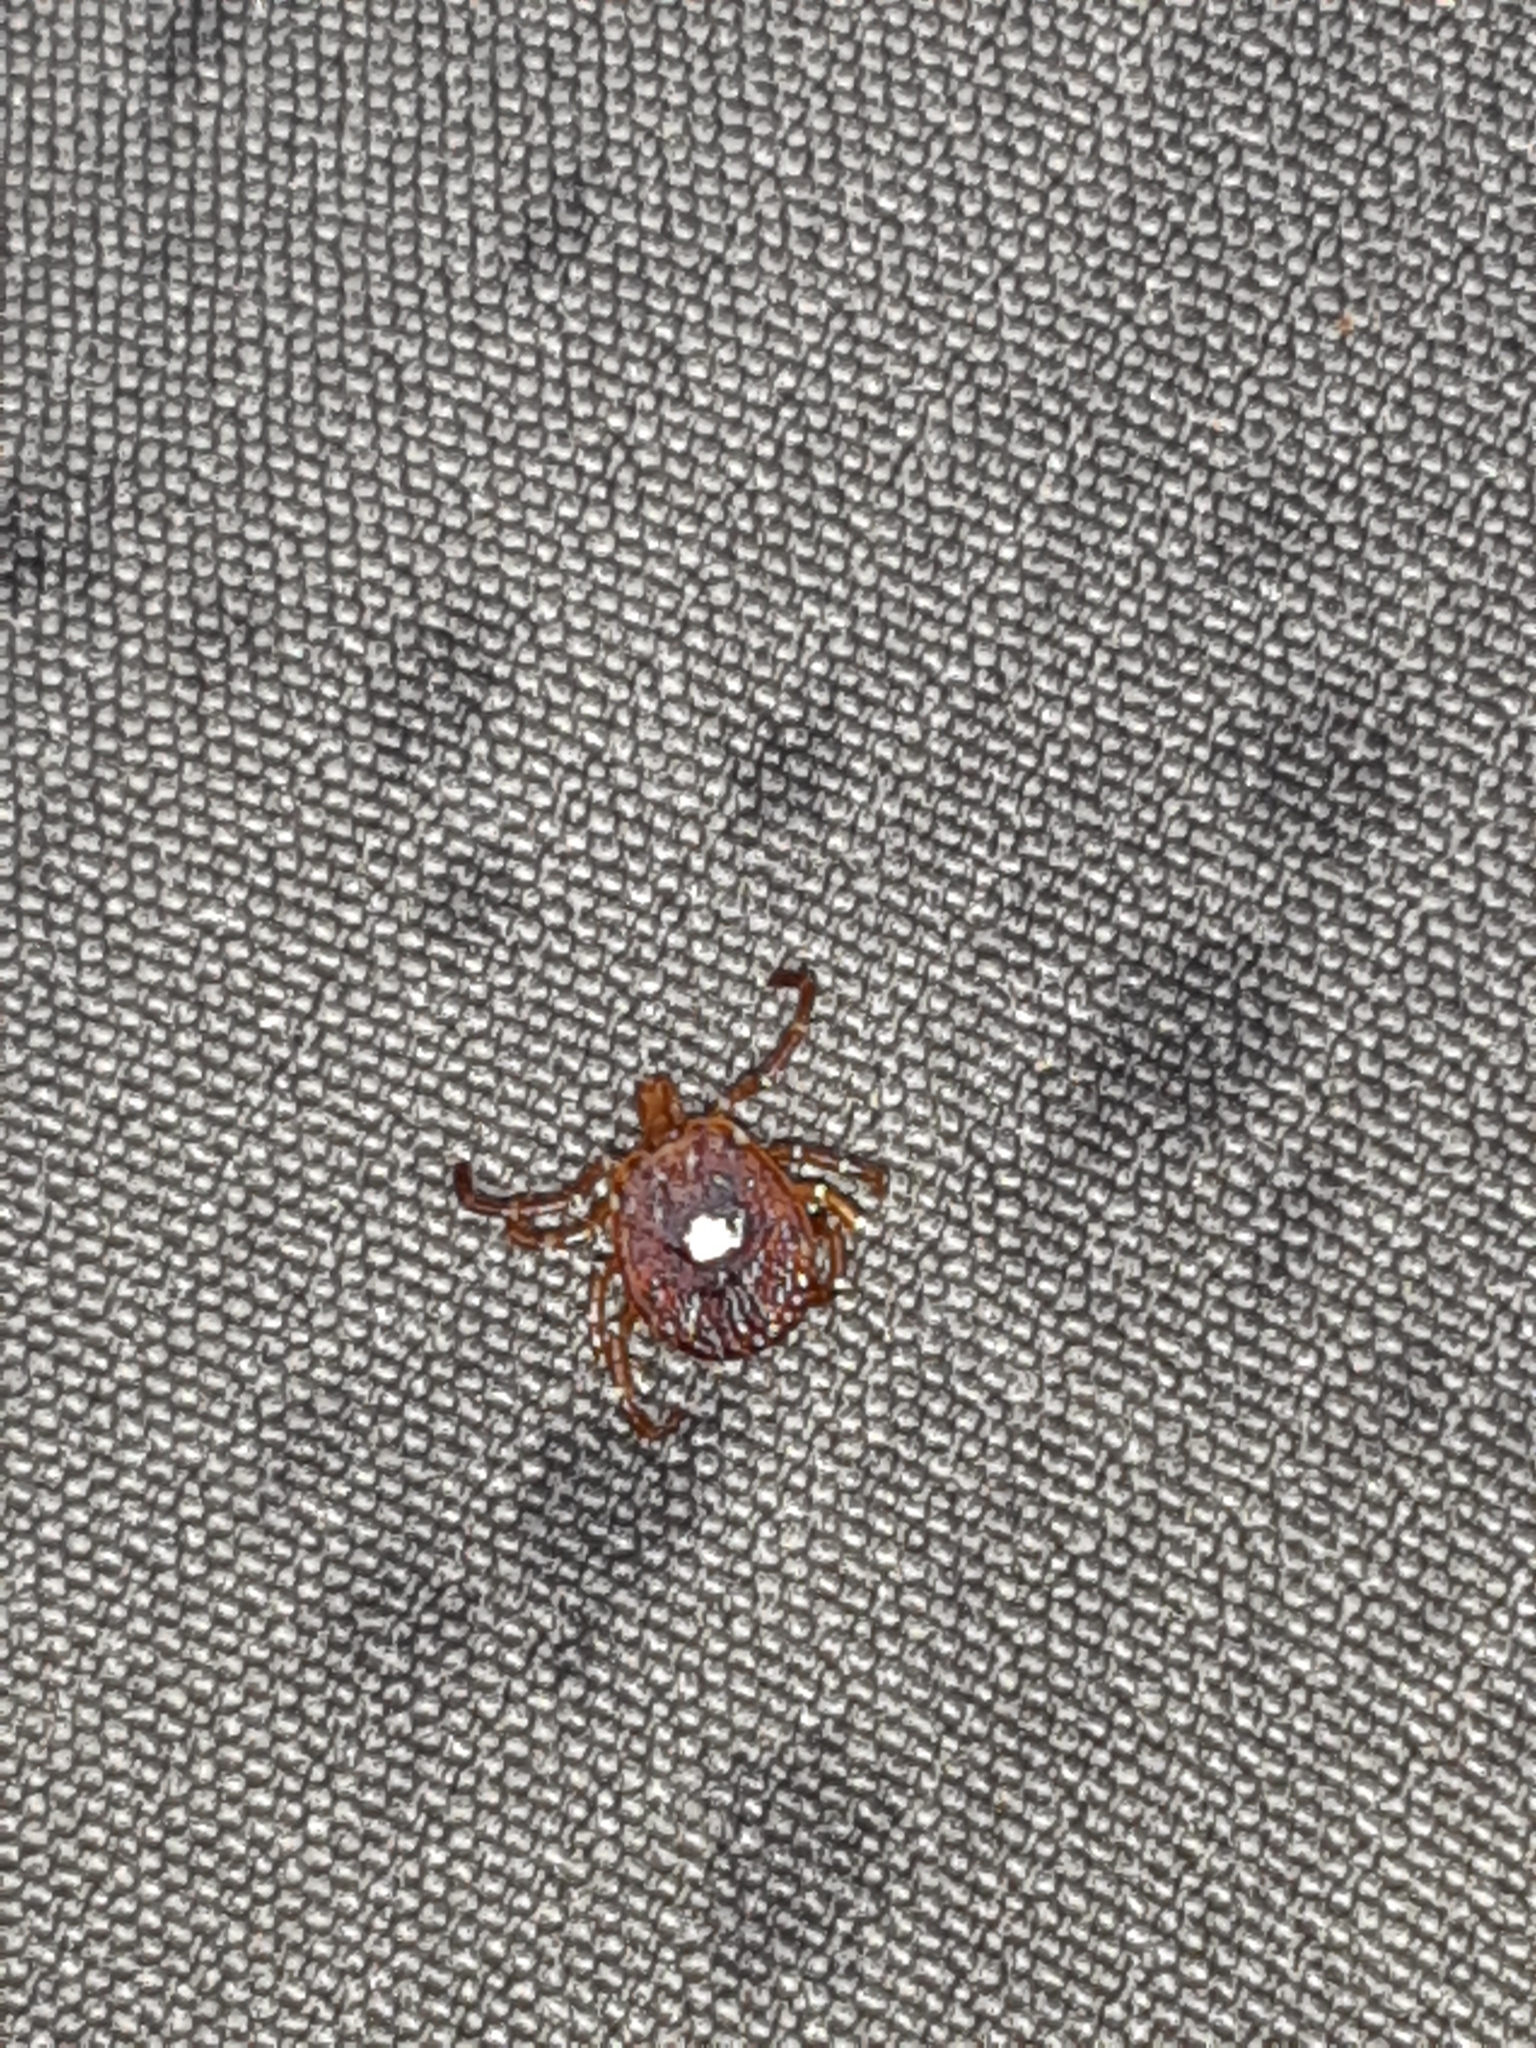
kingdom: Animalia
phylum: Arthropoda
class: Arachnida
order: Ixodida
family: Ixodidae
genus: Amblyomma
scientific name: Amblyomma americanum
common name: Lone star tick
